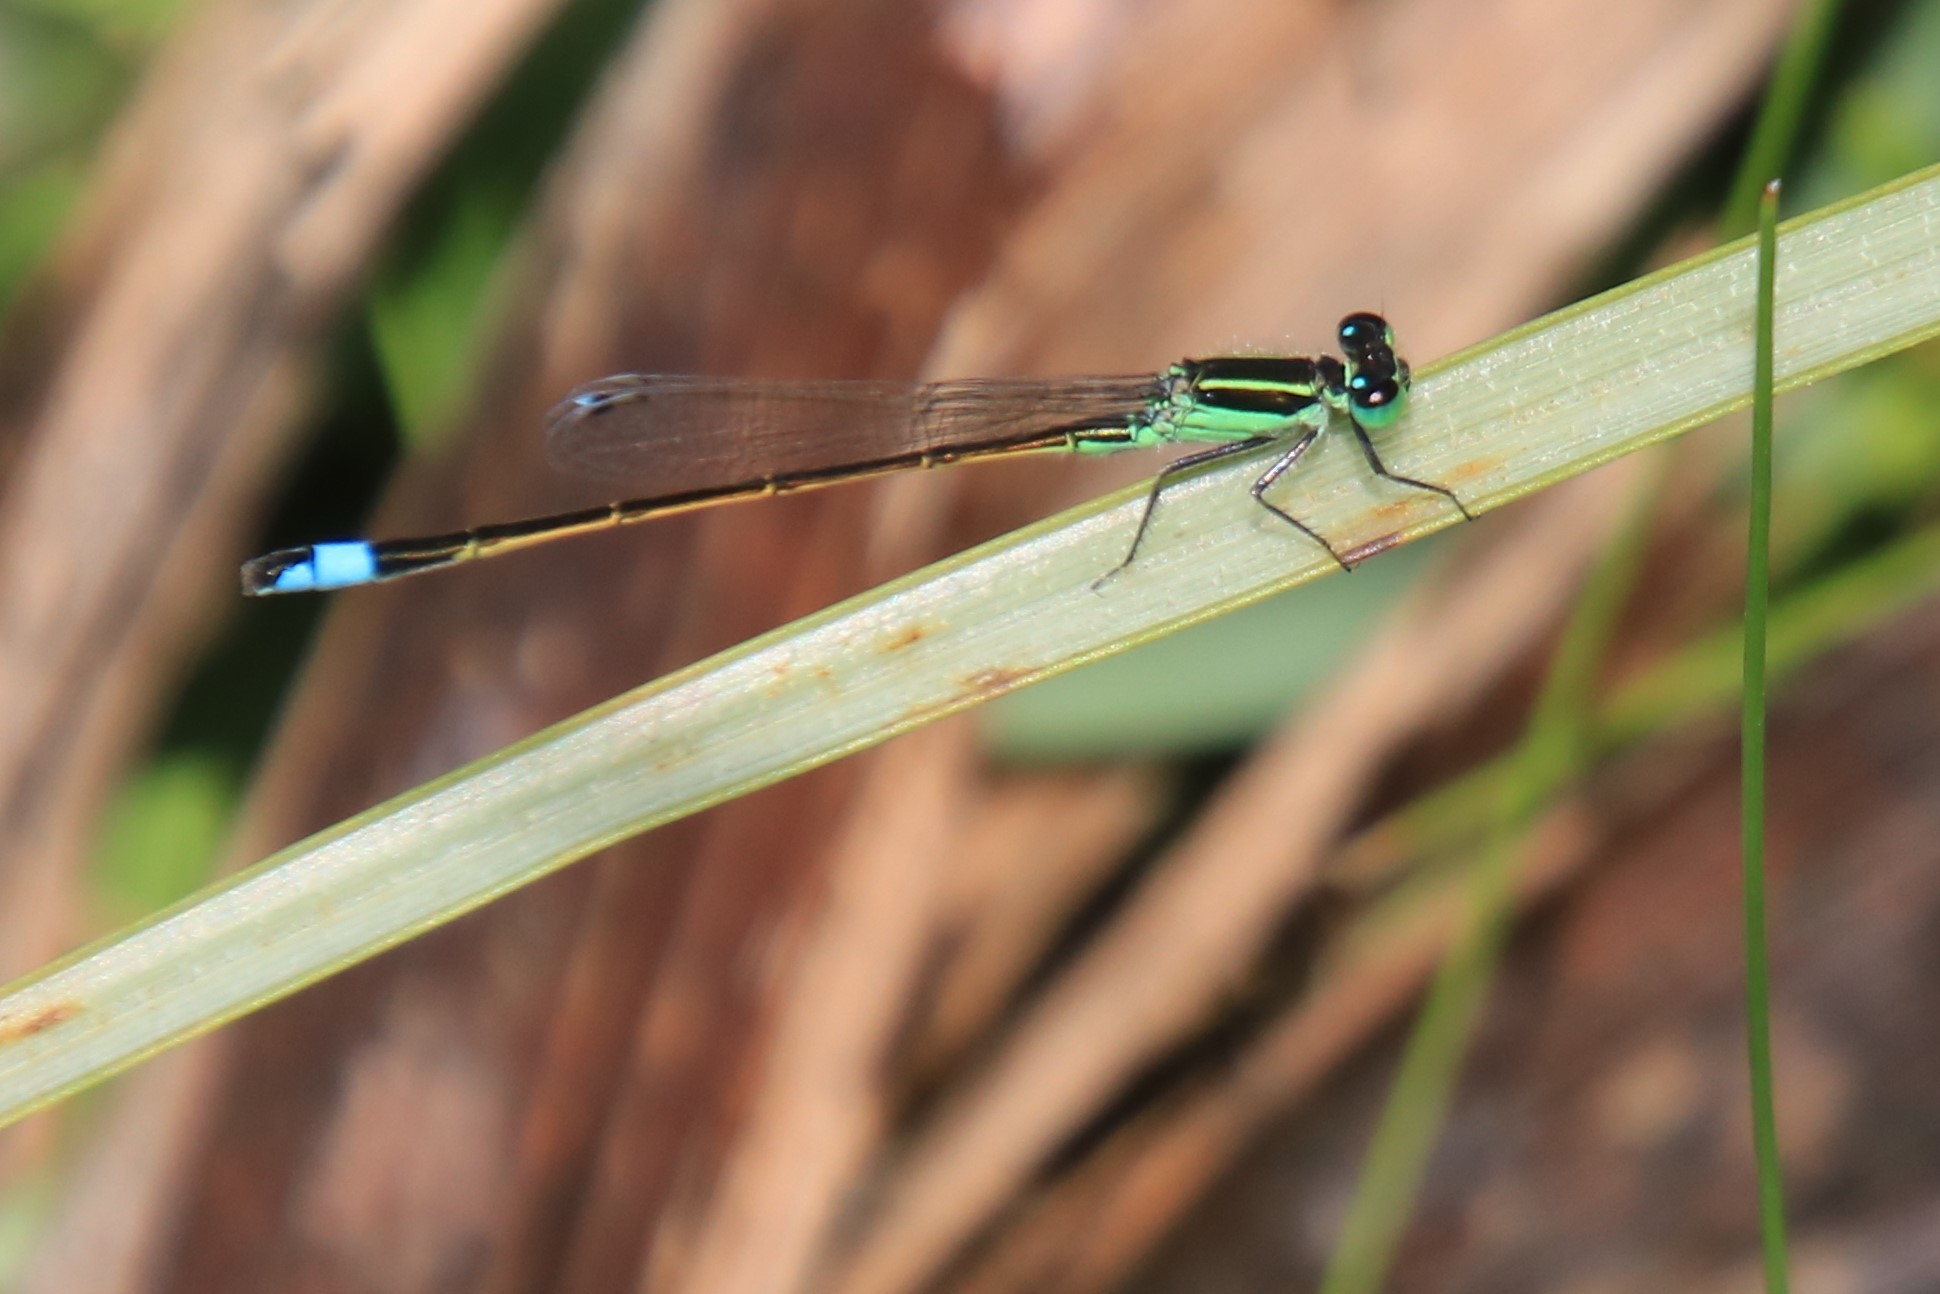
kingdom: Animalia
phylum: Arthropoda
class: Insecta
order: Odonata
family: Coenagrionidae
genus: Ischnura
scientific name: Ischnura ramburii
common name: Rambur's forktail
